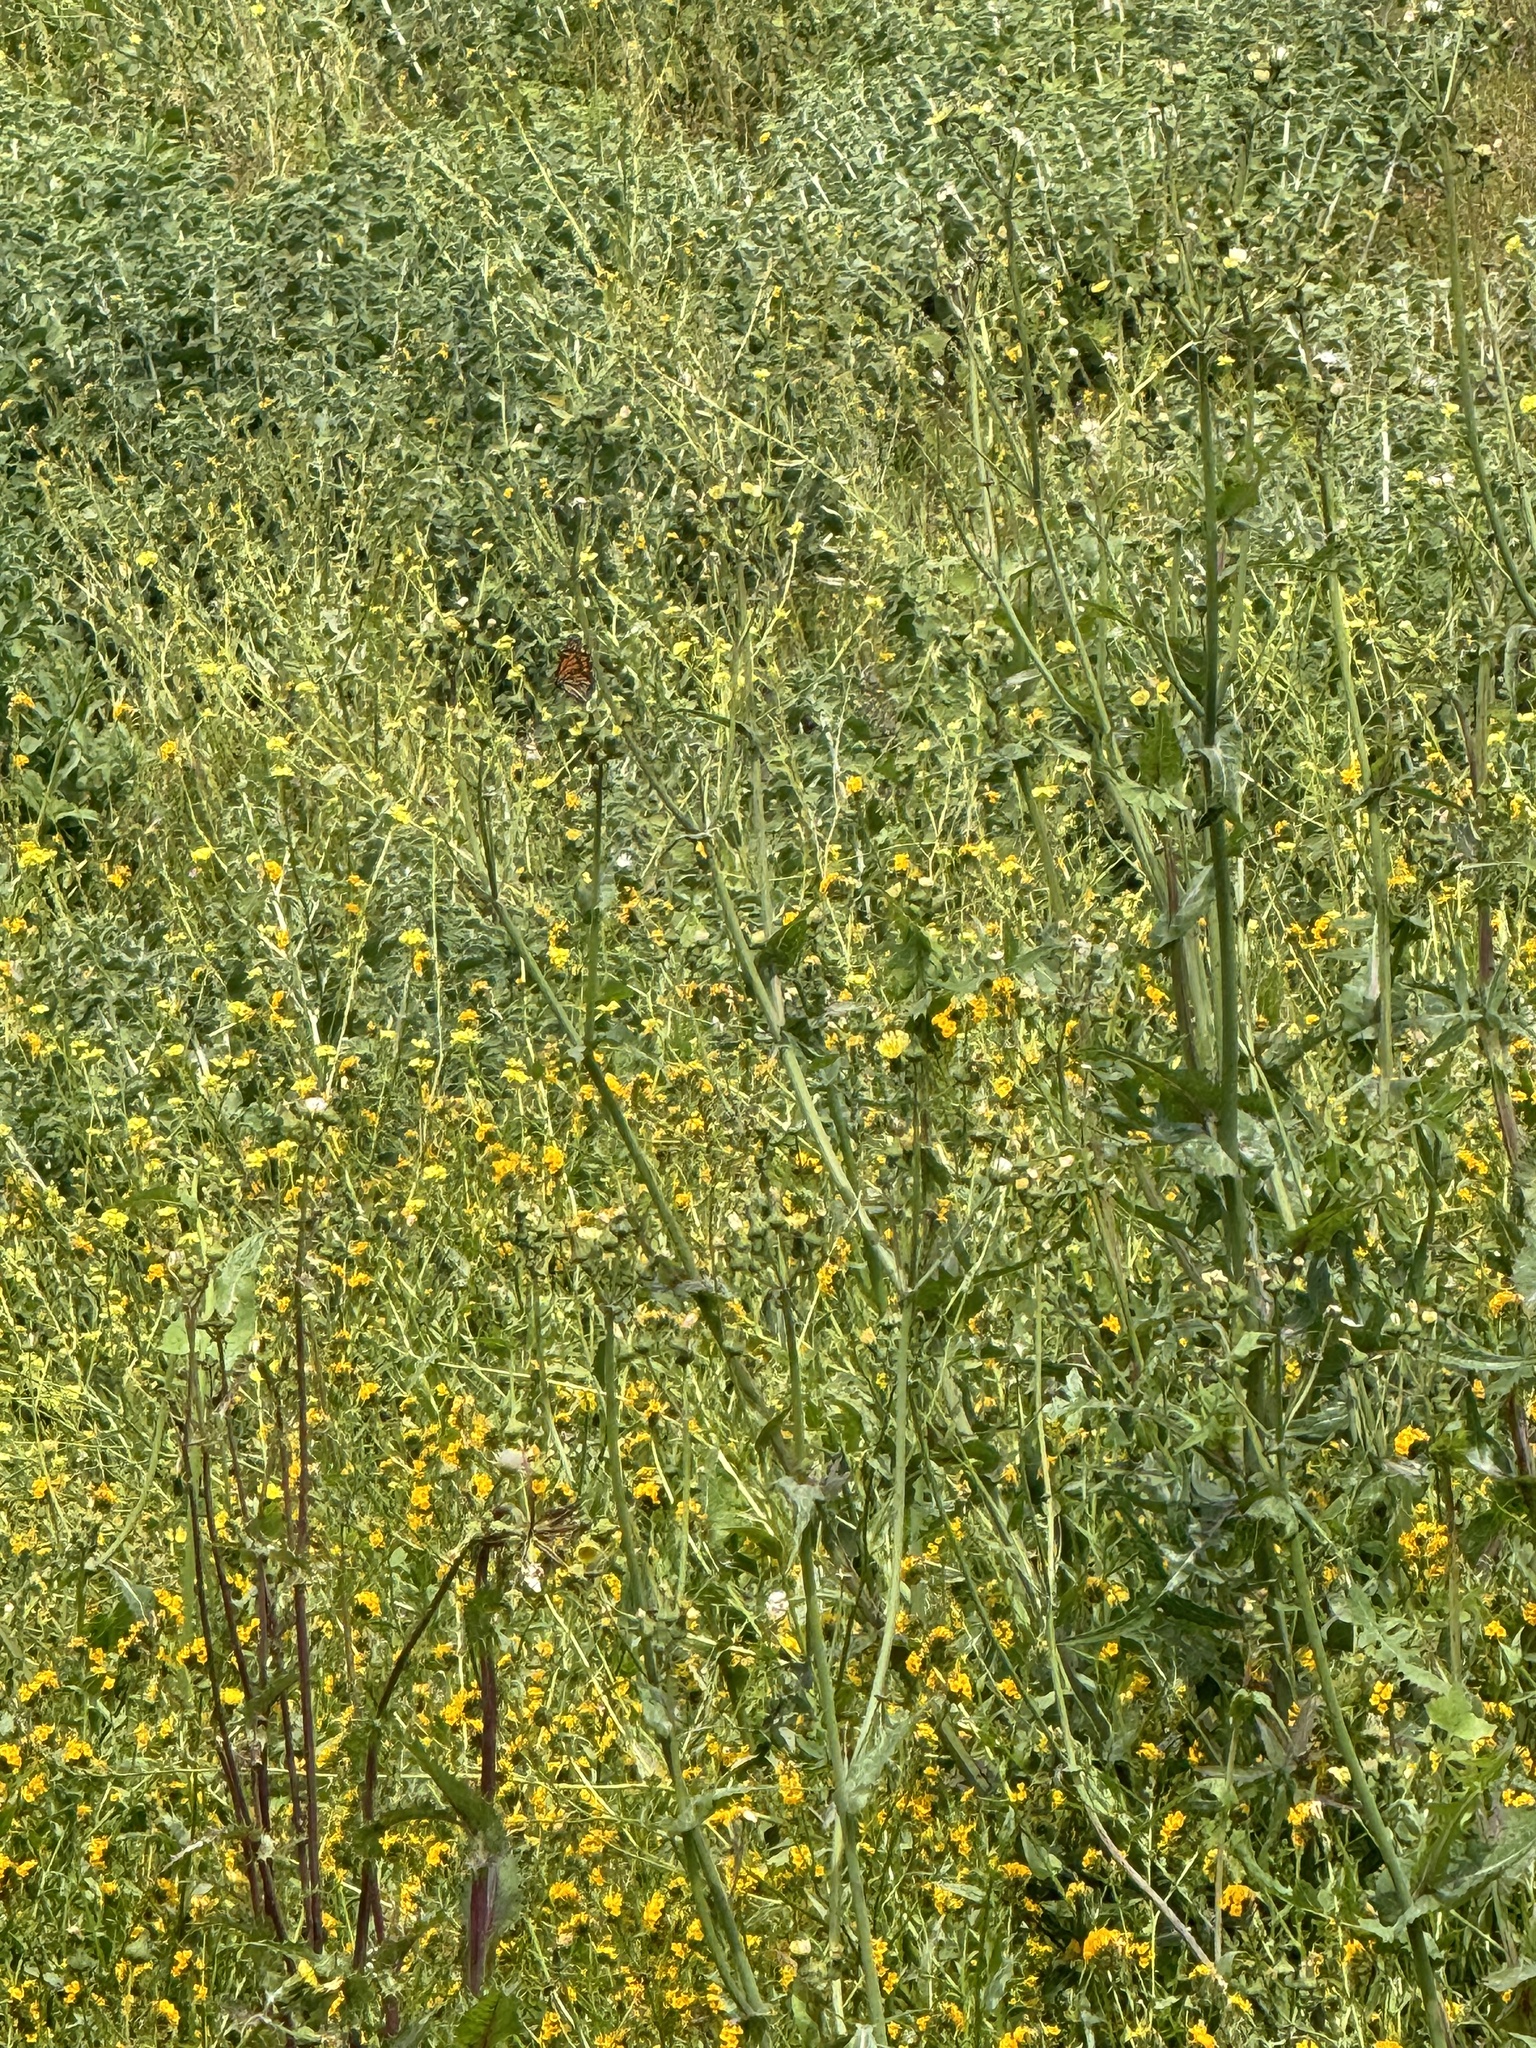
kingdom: Animalia
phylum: Arthropoda
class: Insecta
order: Lepidoptera
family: Nymphalidae
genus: Danaus
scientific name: Danaus plexippus
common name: Monarch
